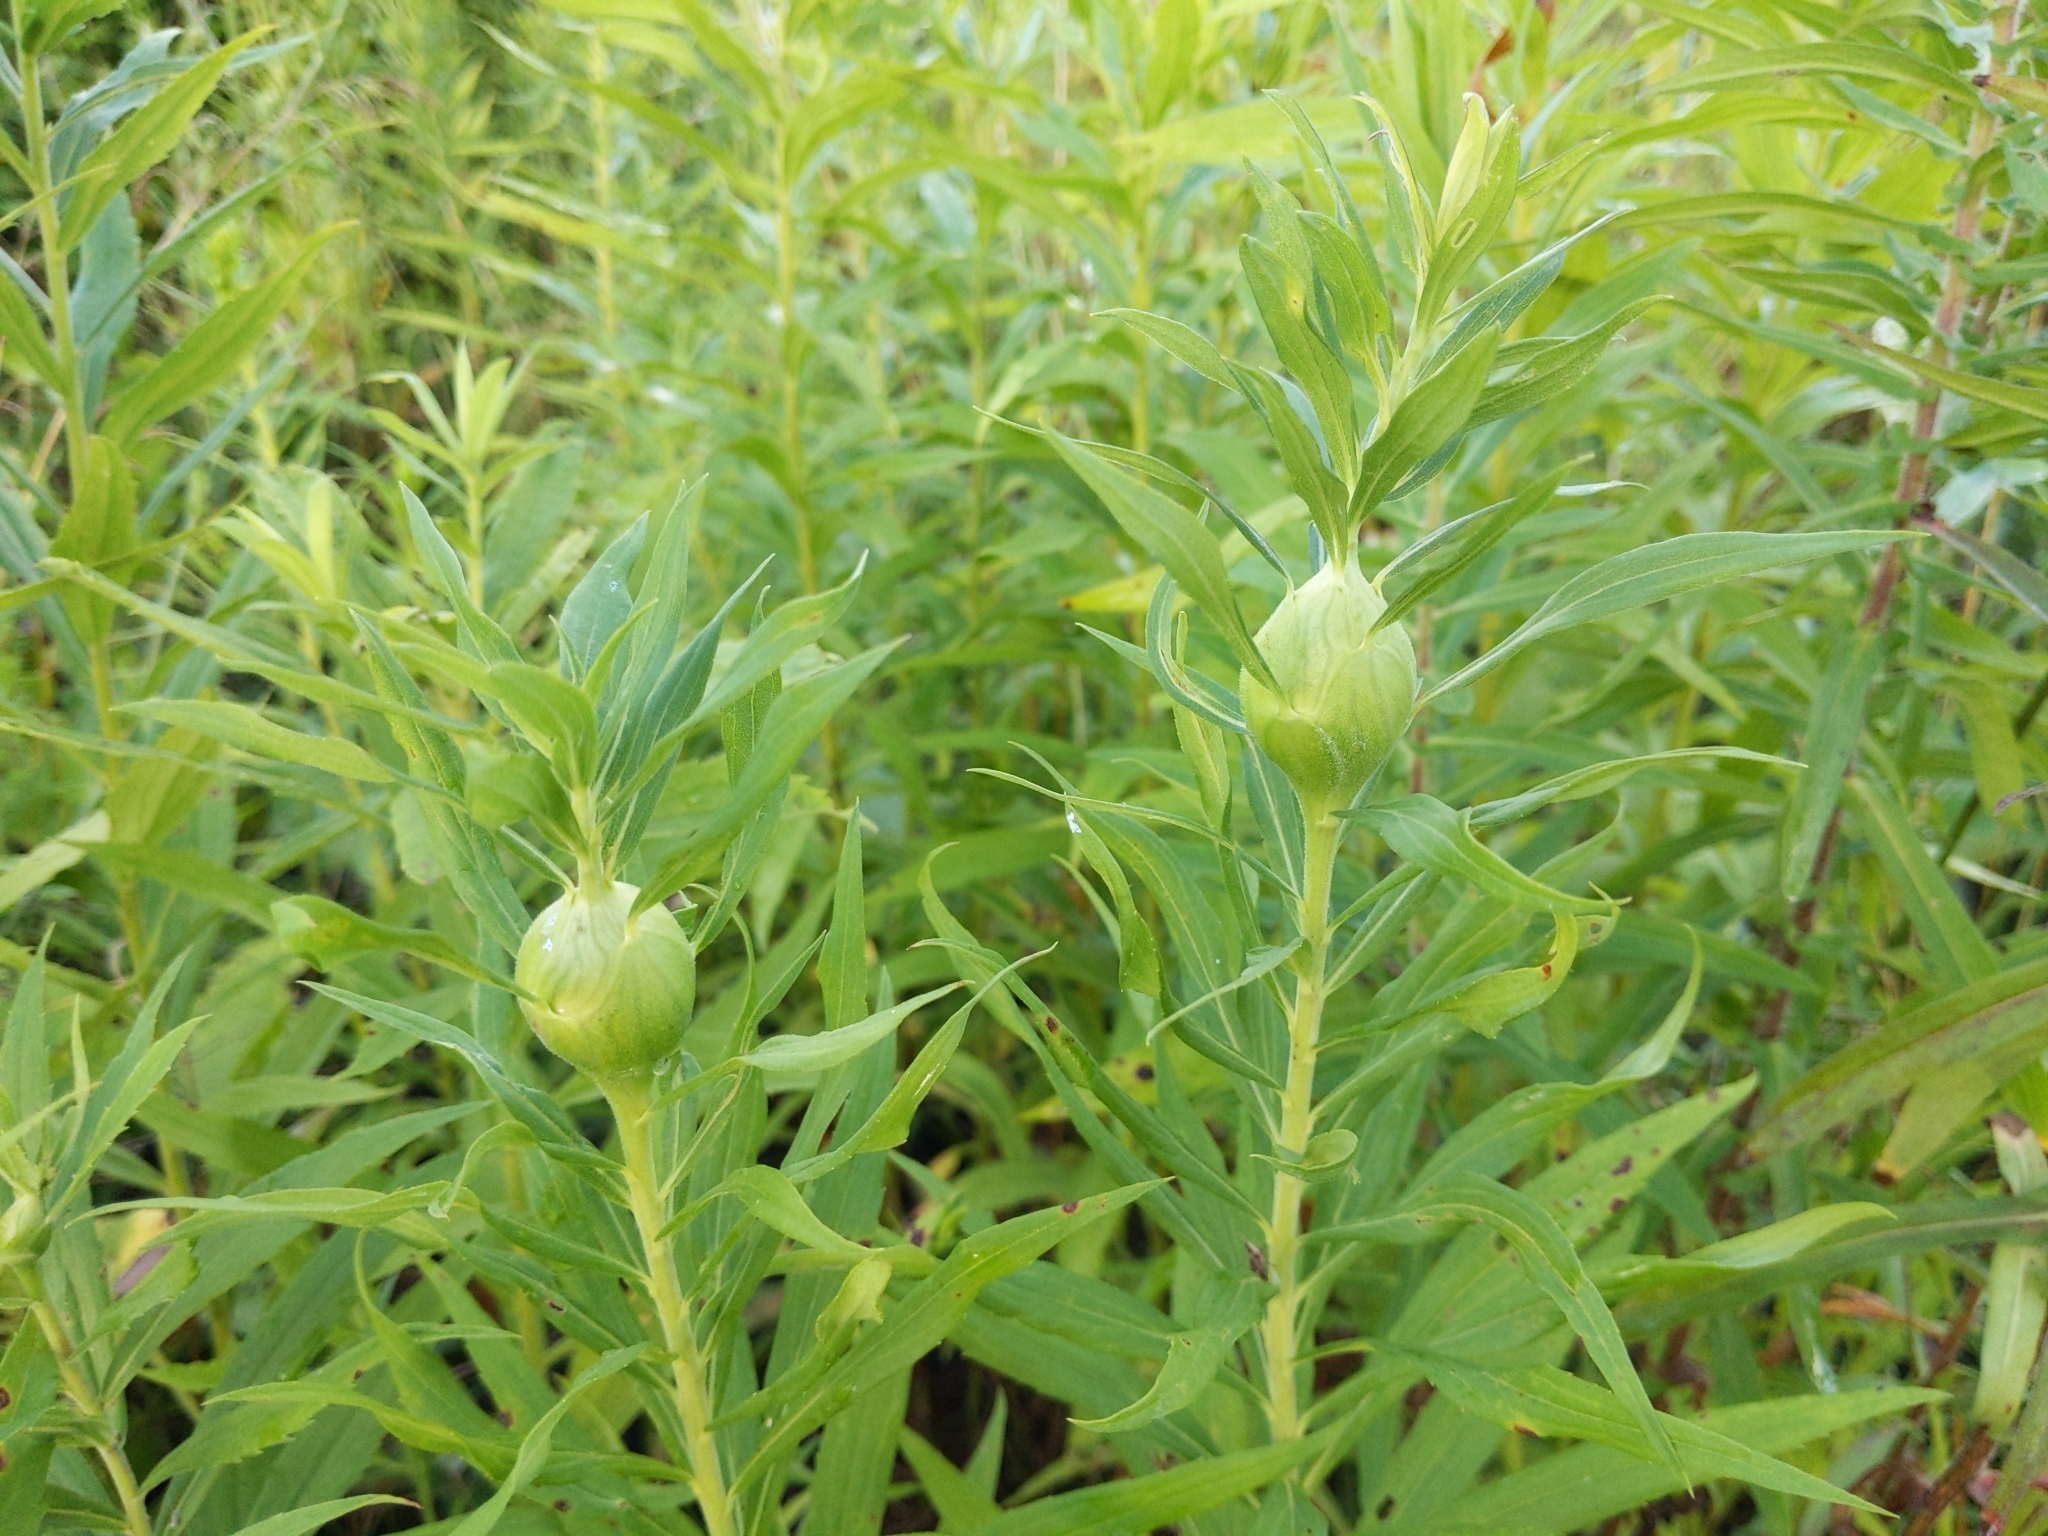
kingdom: Animalia
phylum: Arthropoda
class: Insecta
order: Diptera
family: Tephritidae
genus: Eurosta
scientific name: Eurosta solidaginis
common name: Goldenrod gall fly
